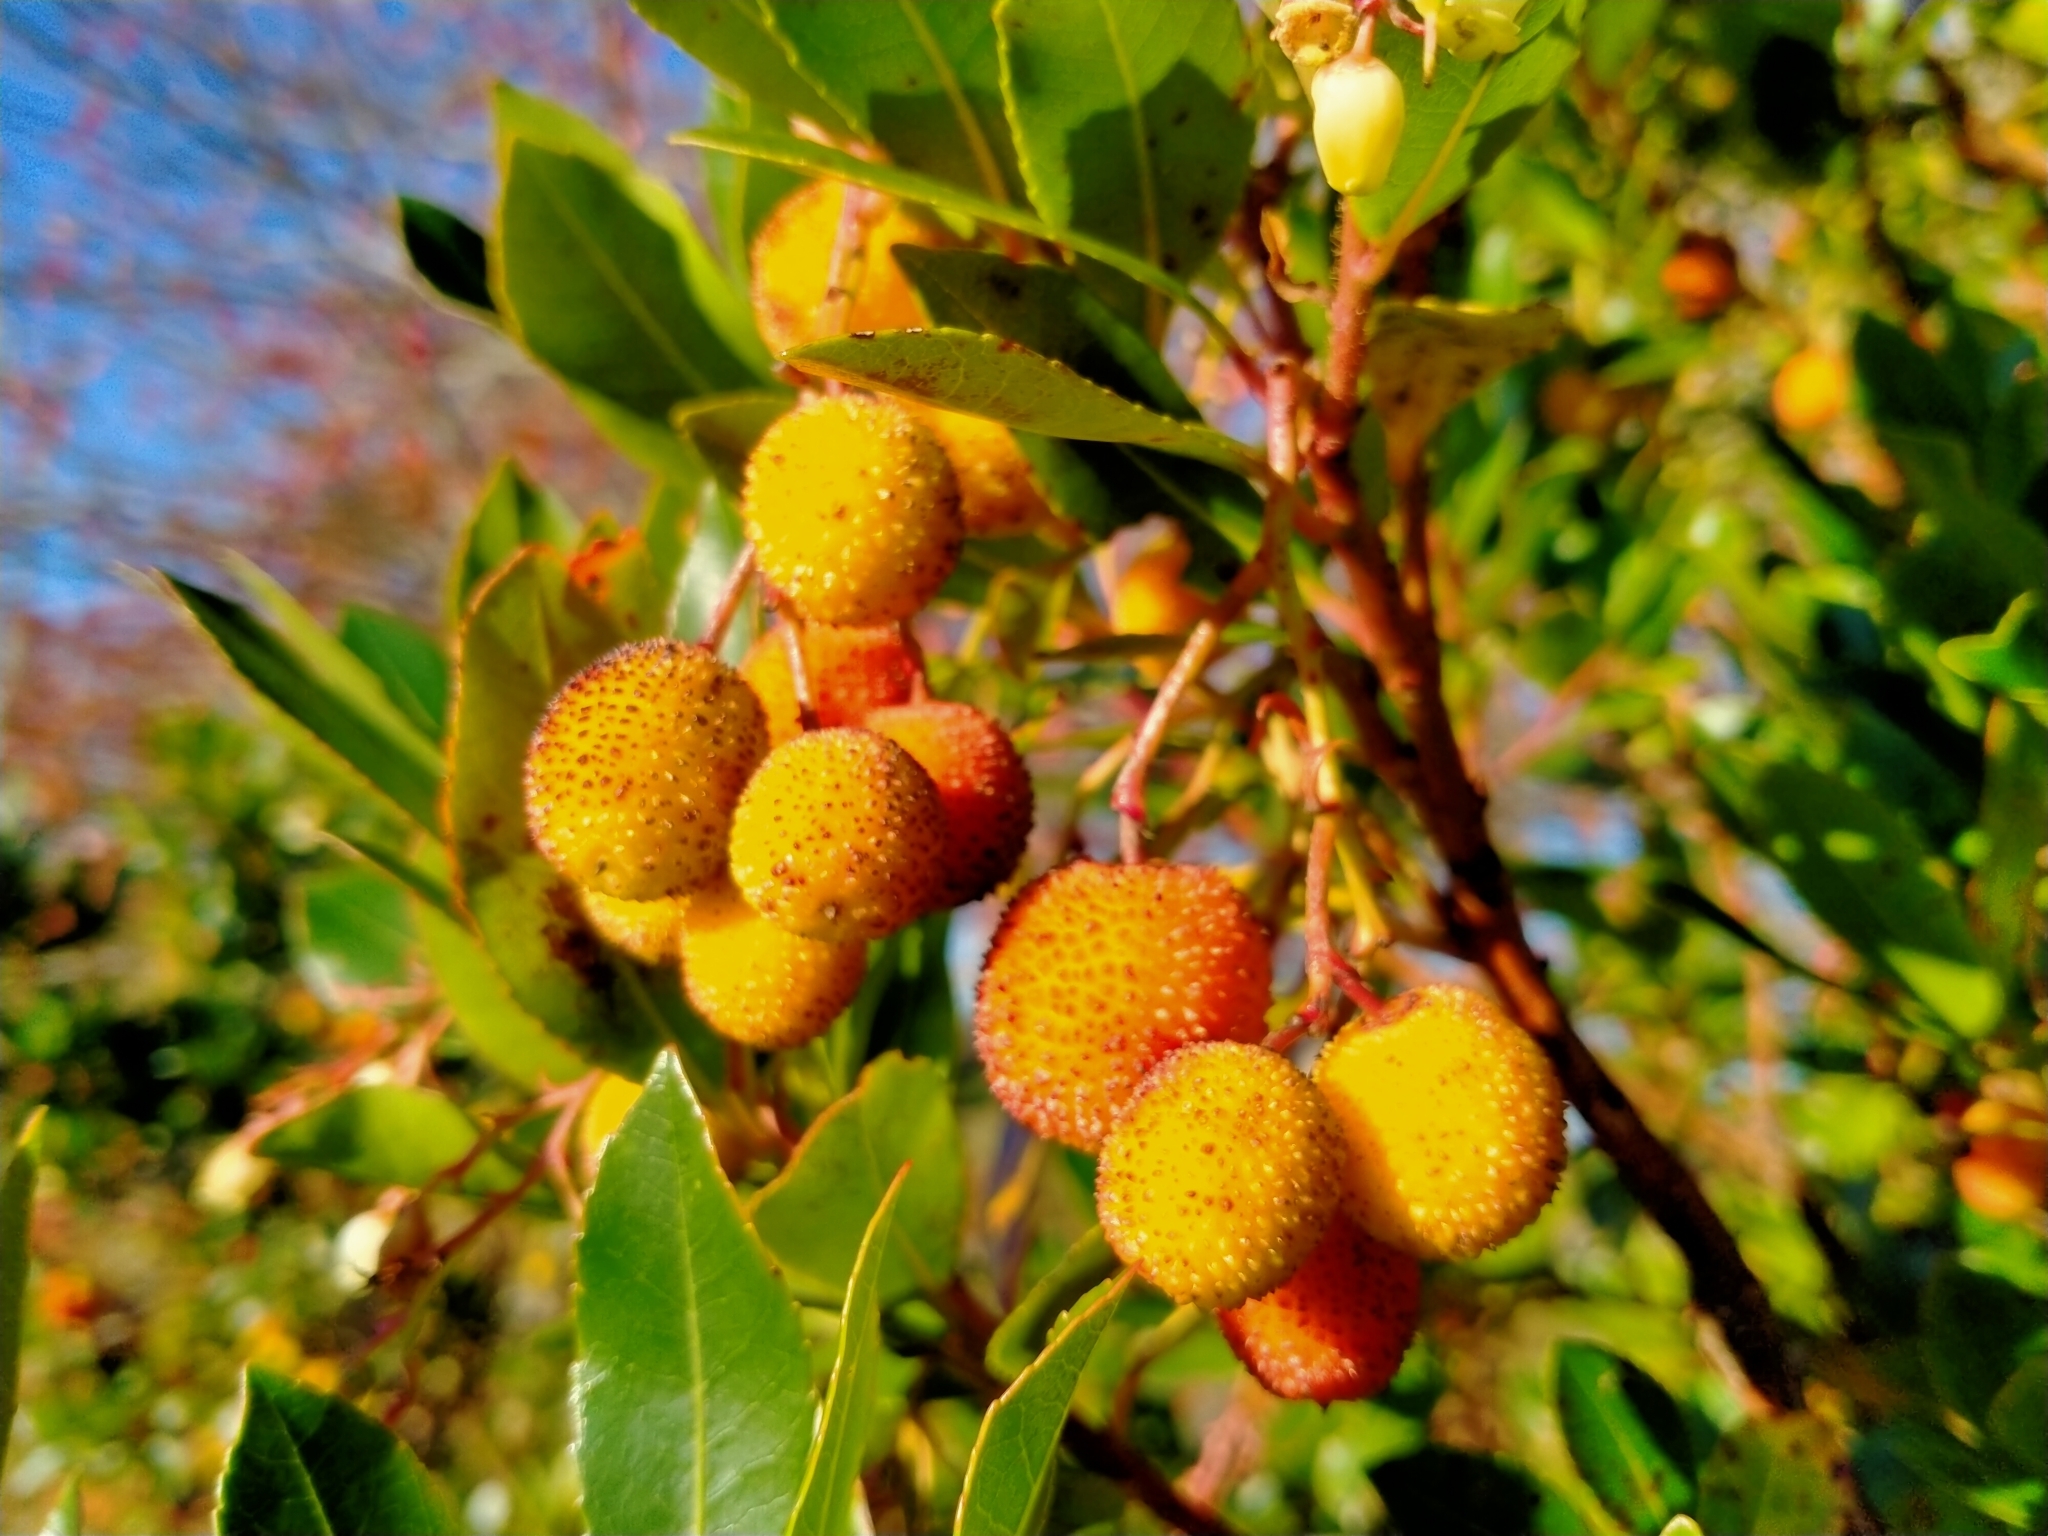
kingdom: Plantae
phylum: Tracheophyta
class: Magnoliopsida
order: Ericales
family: Ericaceae
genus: Arbutus
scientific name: Arbutus unedo
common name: Strawberry-tree
